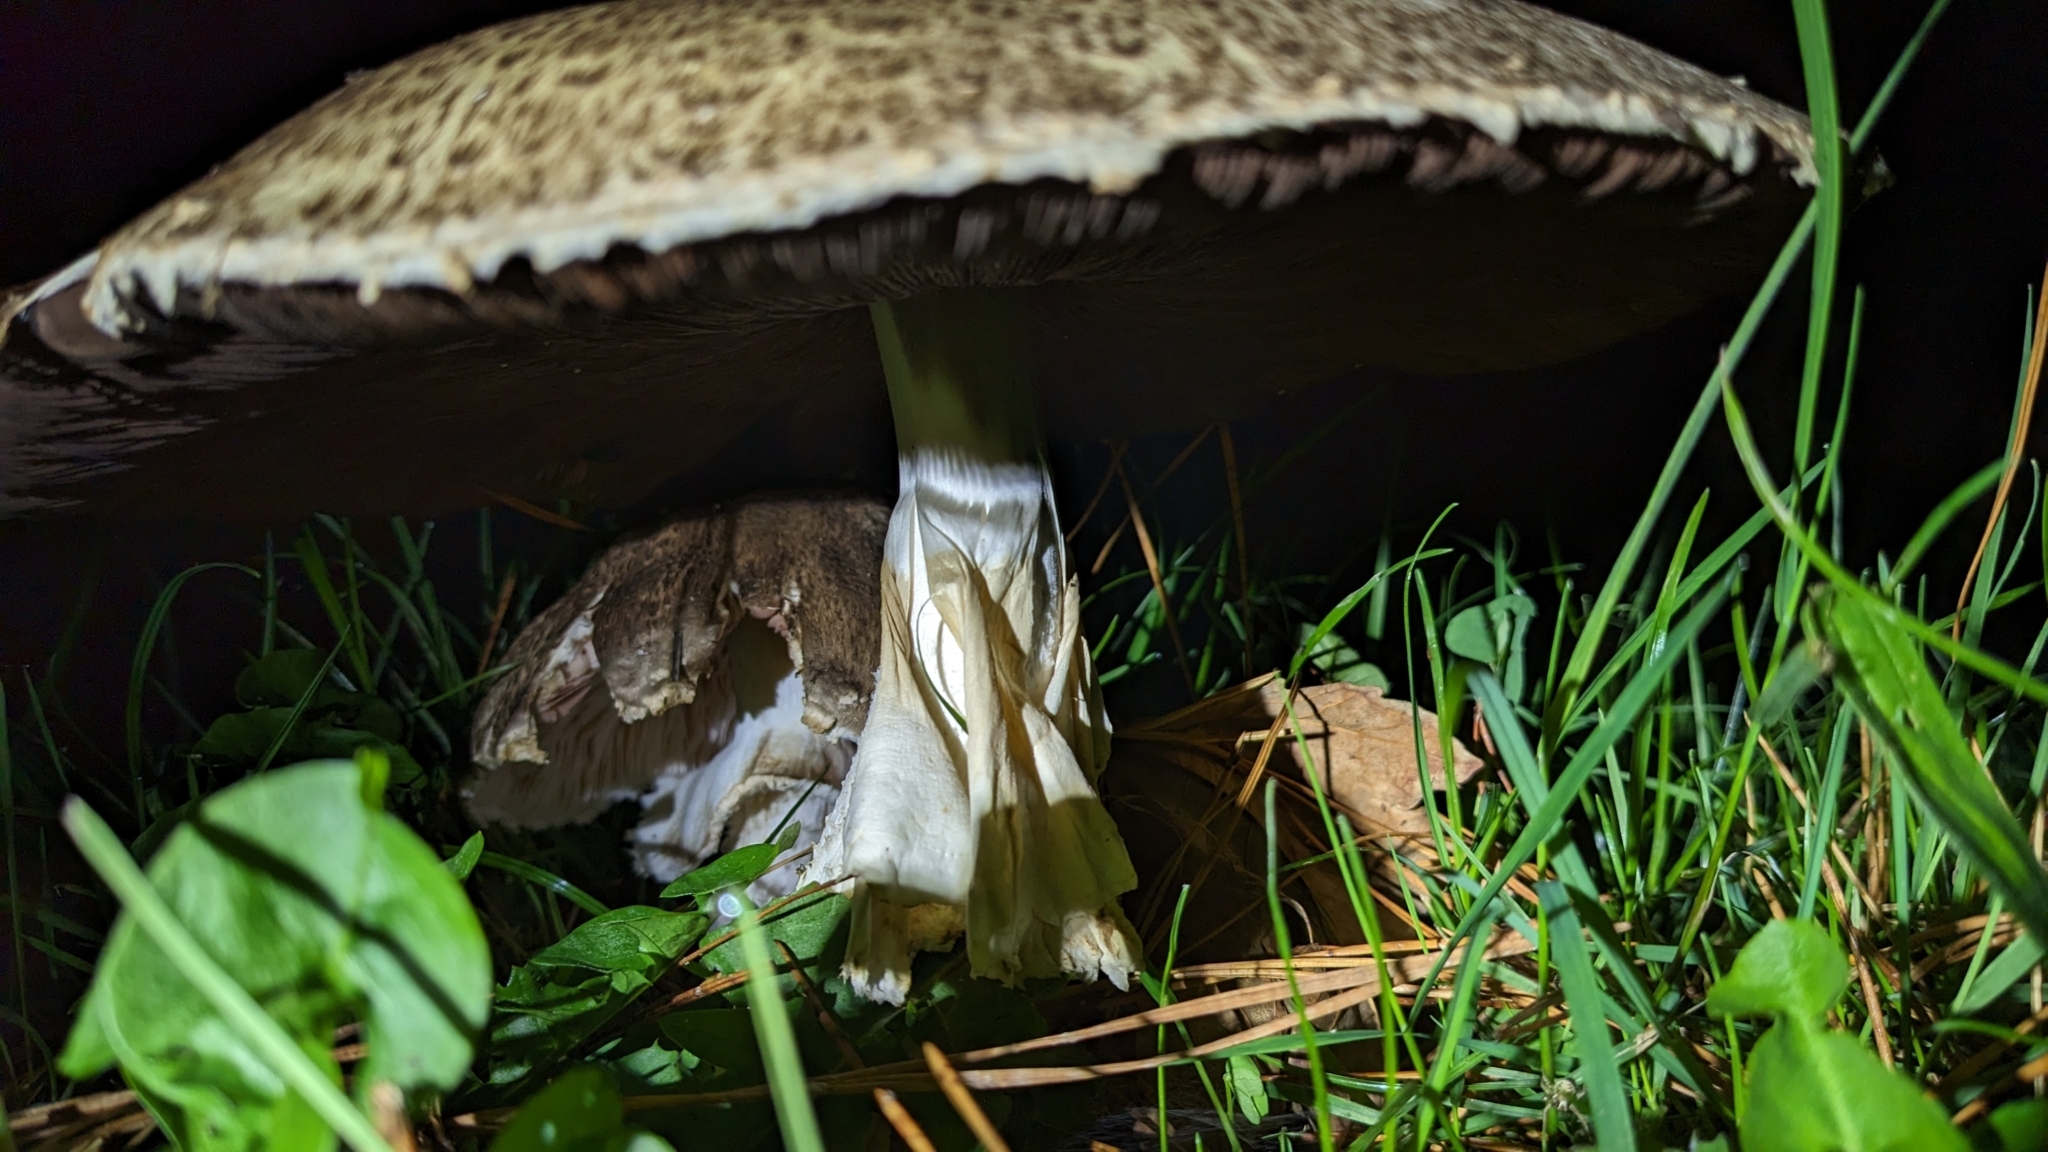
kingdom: Fungi
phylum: Basidiomycota
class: Agaricomycetes
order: Agaricales
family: Agaricaceae
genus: Agaricus
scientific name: Agaricus augustus
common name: Prince
